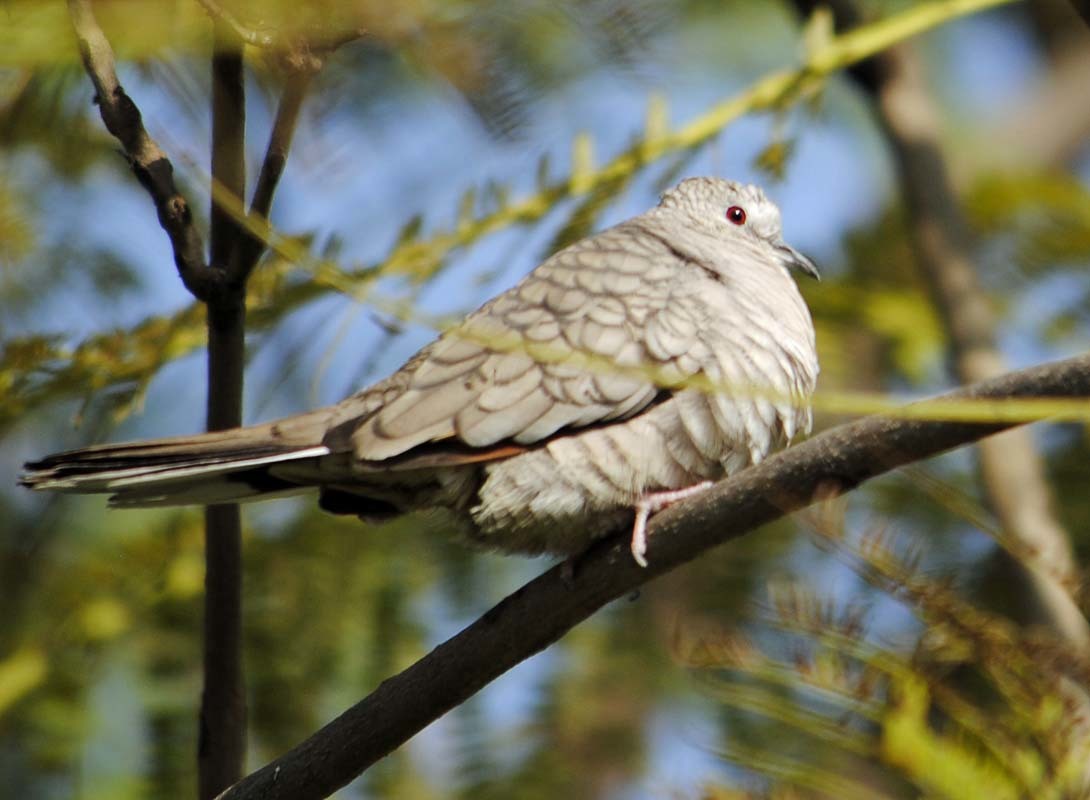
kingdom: Animalia
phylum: Chordata
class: Aves
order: Columbiformes
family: Columbidae
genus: Columbina
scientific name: Columbina inca
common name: Inca dove
